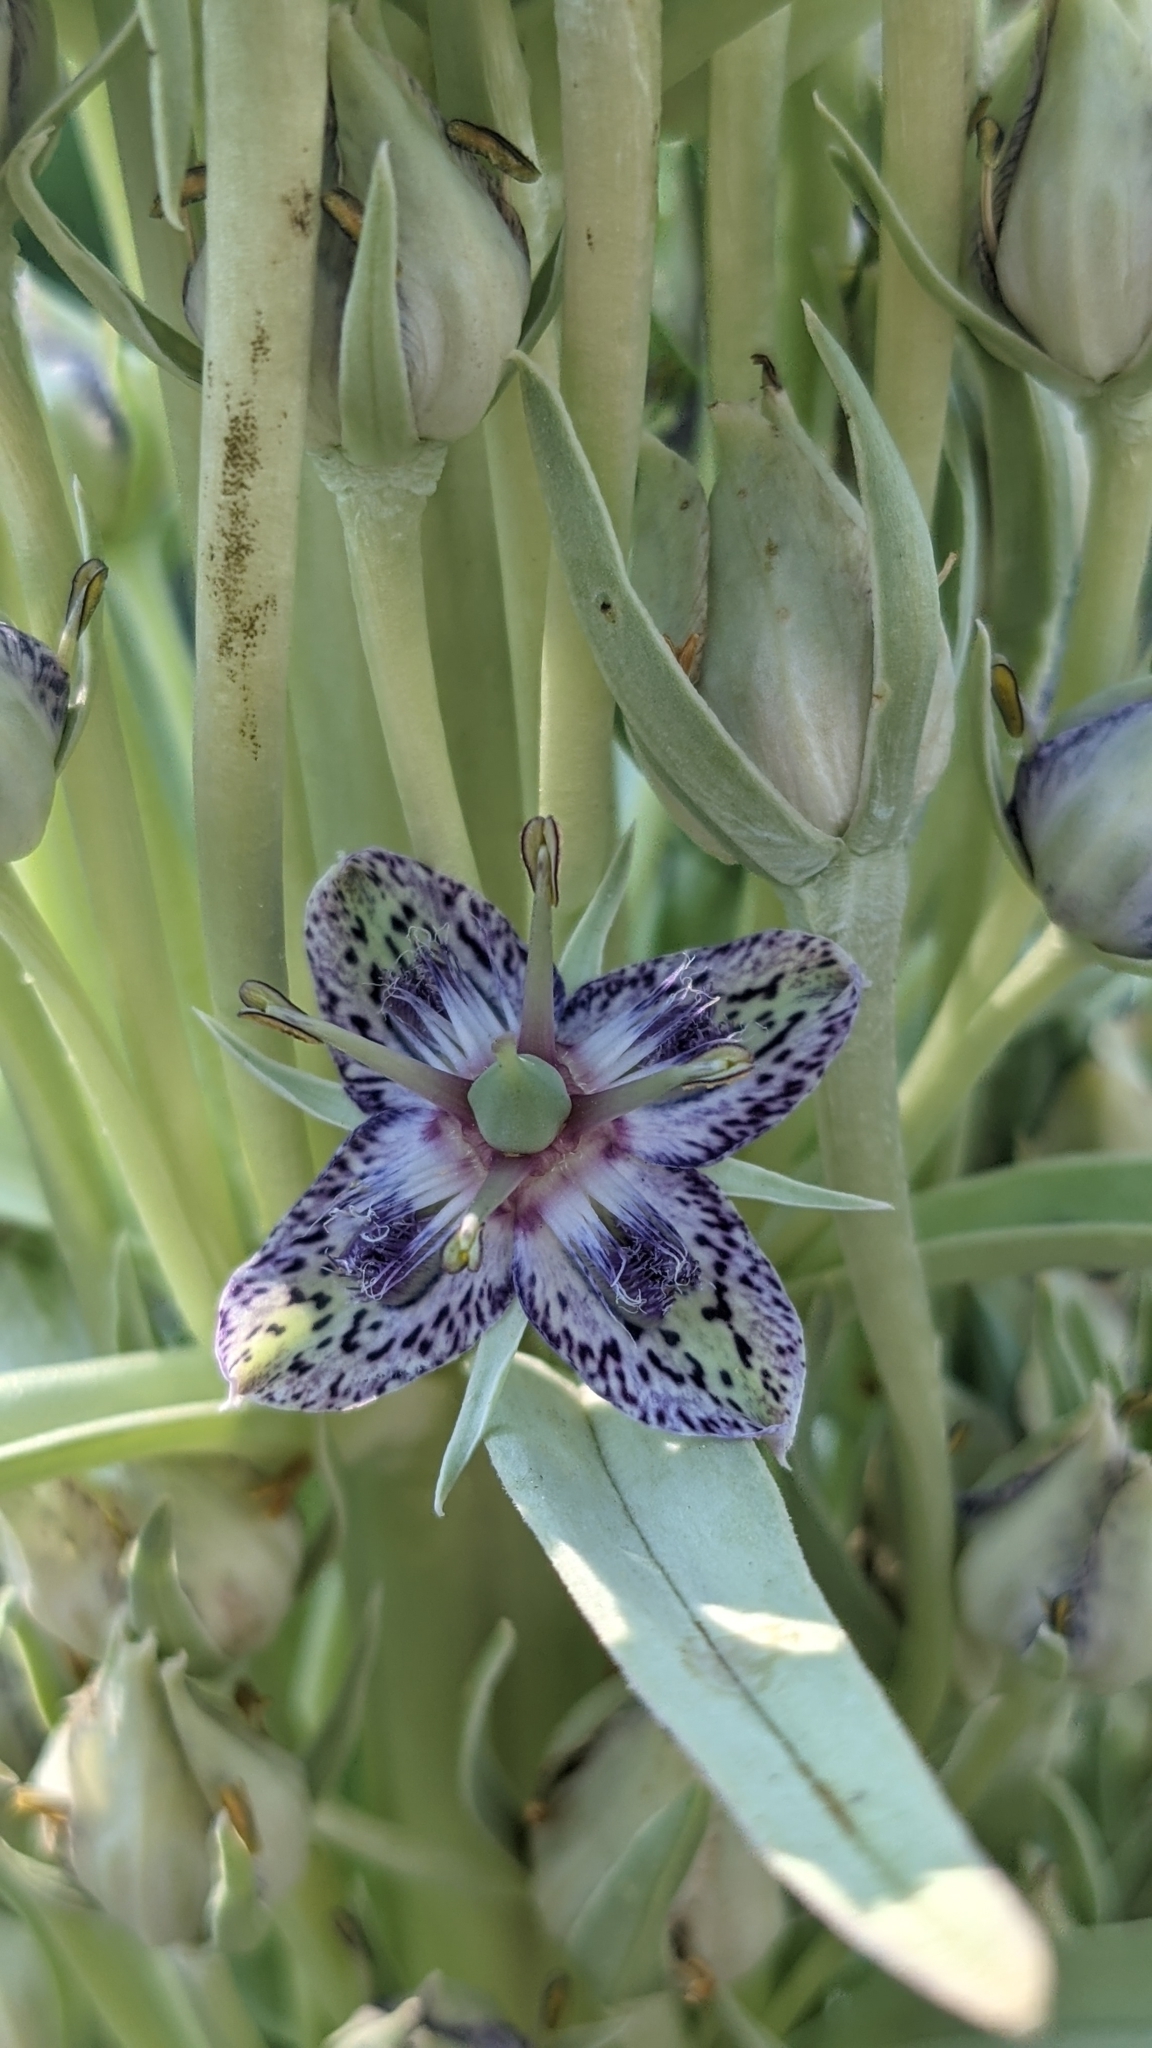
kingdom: Plantae
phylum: Tracheophyta
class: Magnoliopsida
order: Gentianales
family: Gentianaceae
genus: Frasera
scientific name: Frasera speciosa
